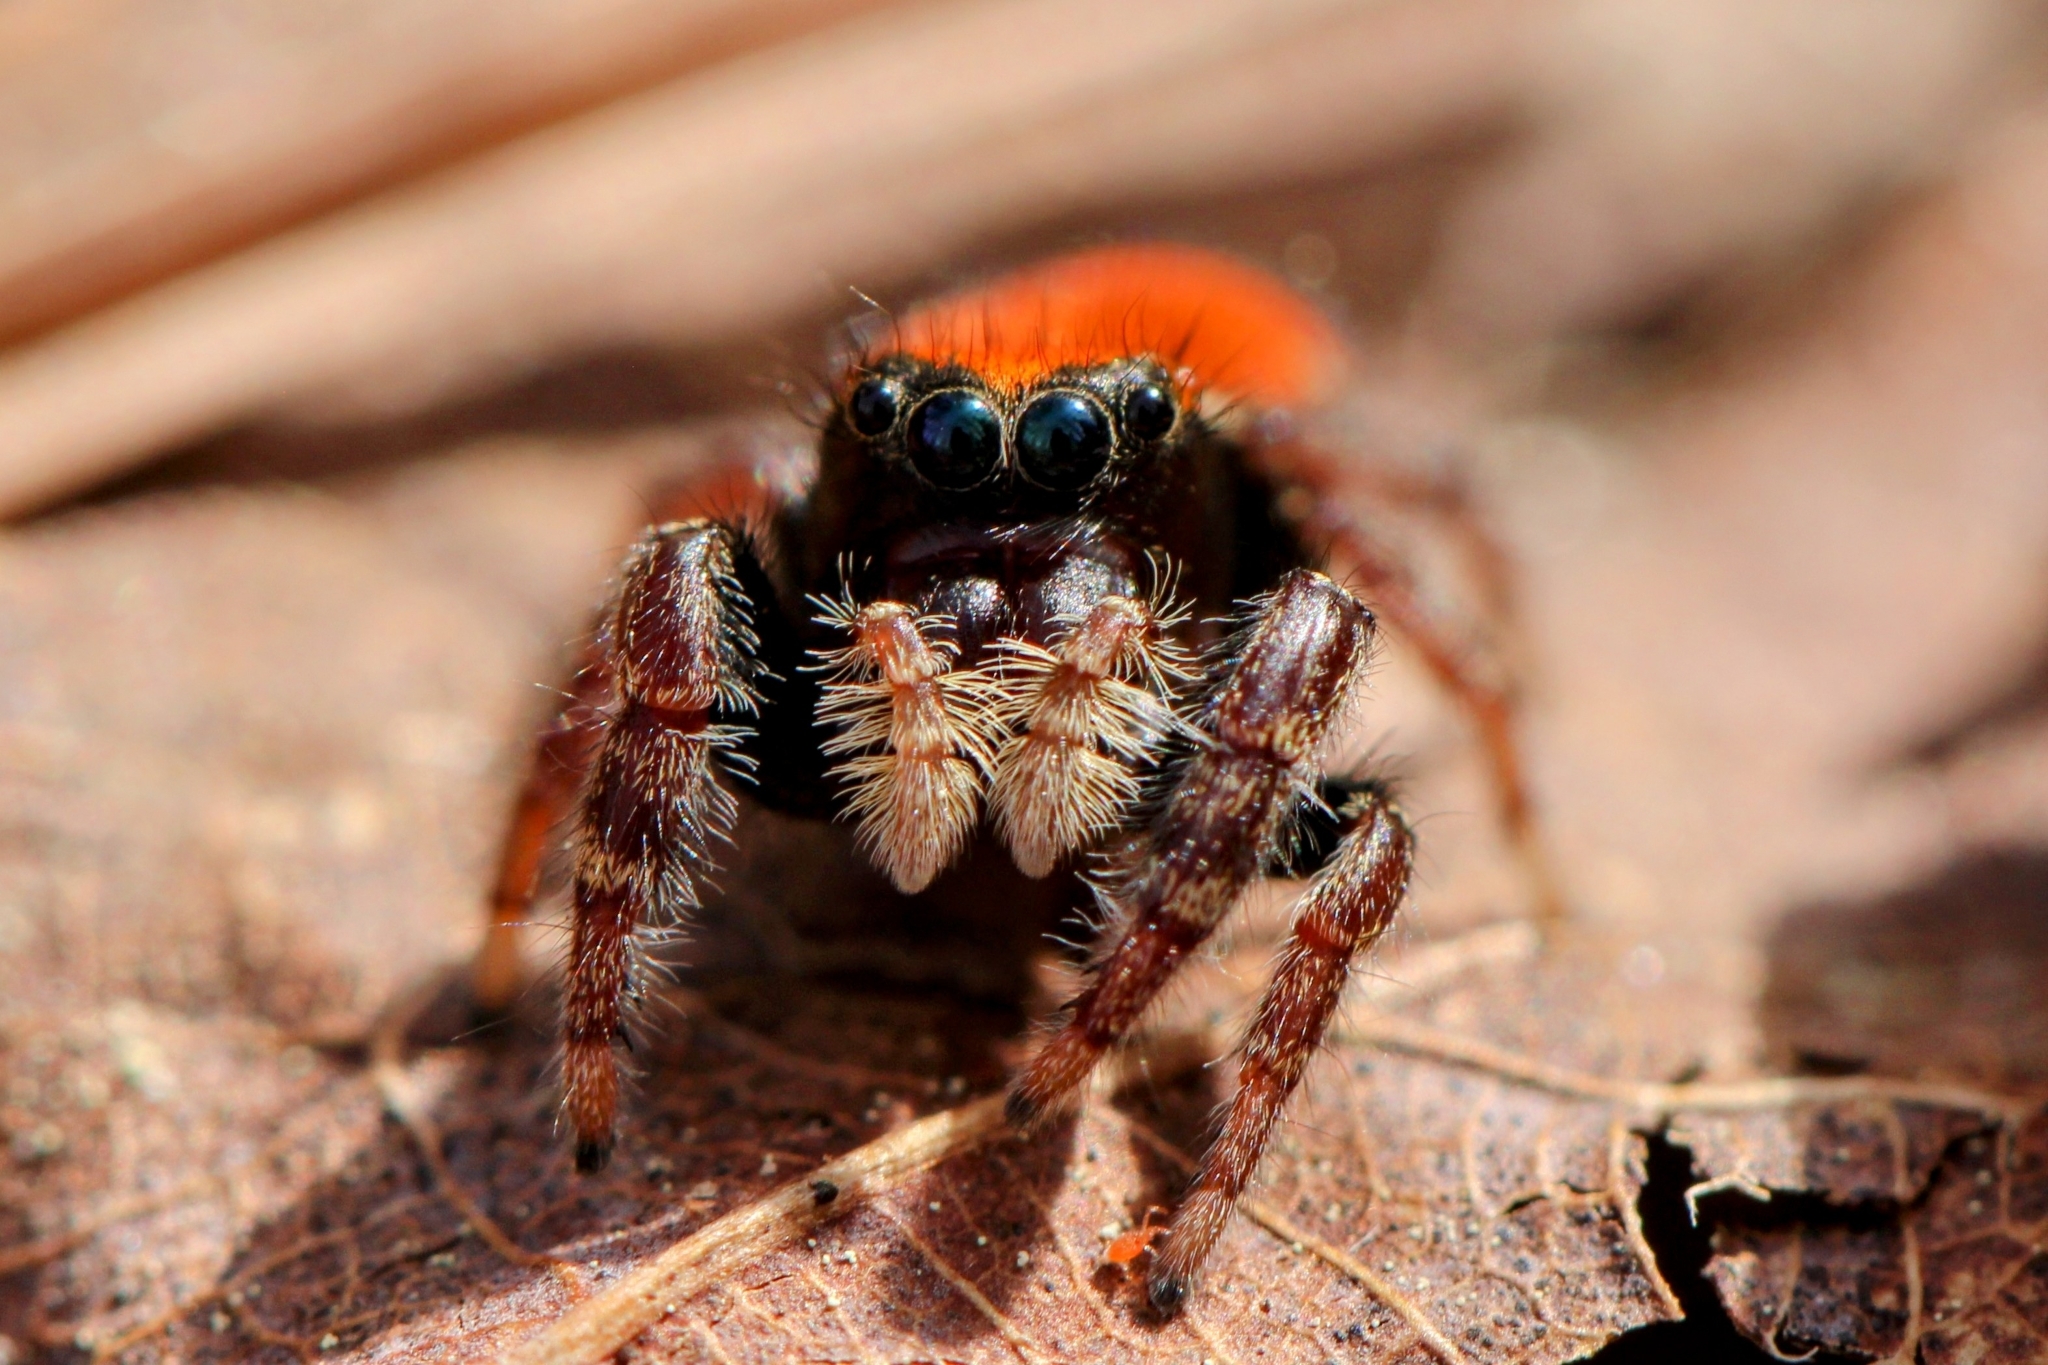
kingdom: Animalia
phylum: Arthropoda
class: Arachnida
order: Araneae
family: Salticidae
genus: Phidippus
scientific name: Phidippus whitmani
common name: Whitman's jumping spider
